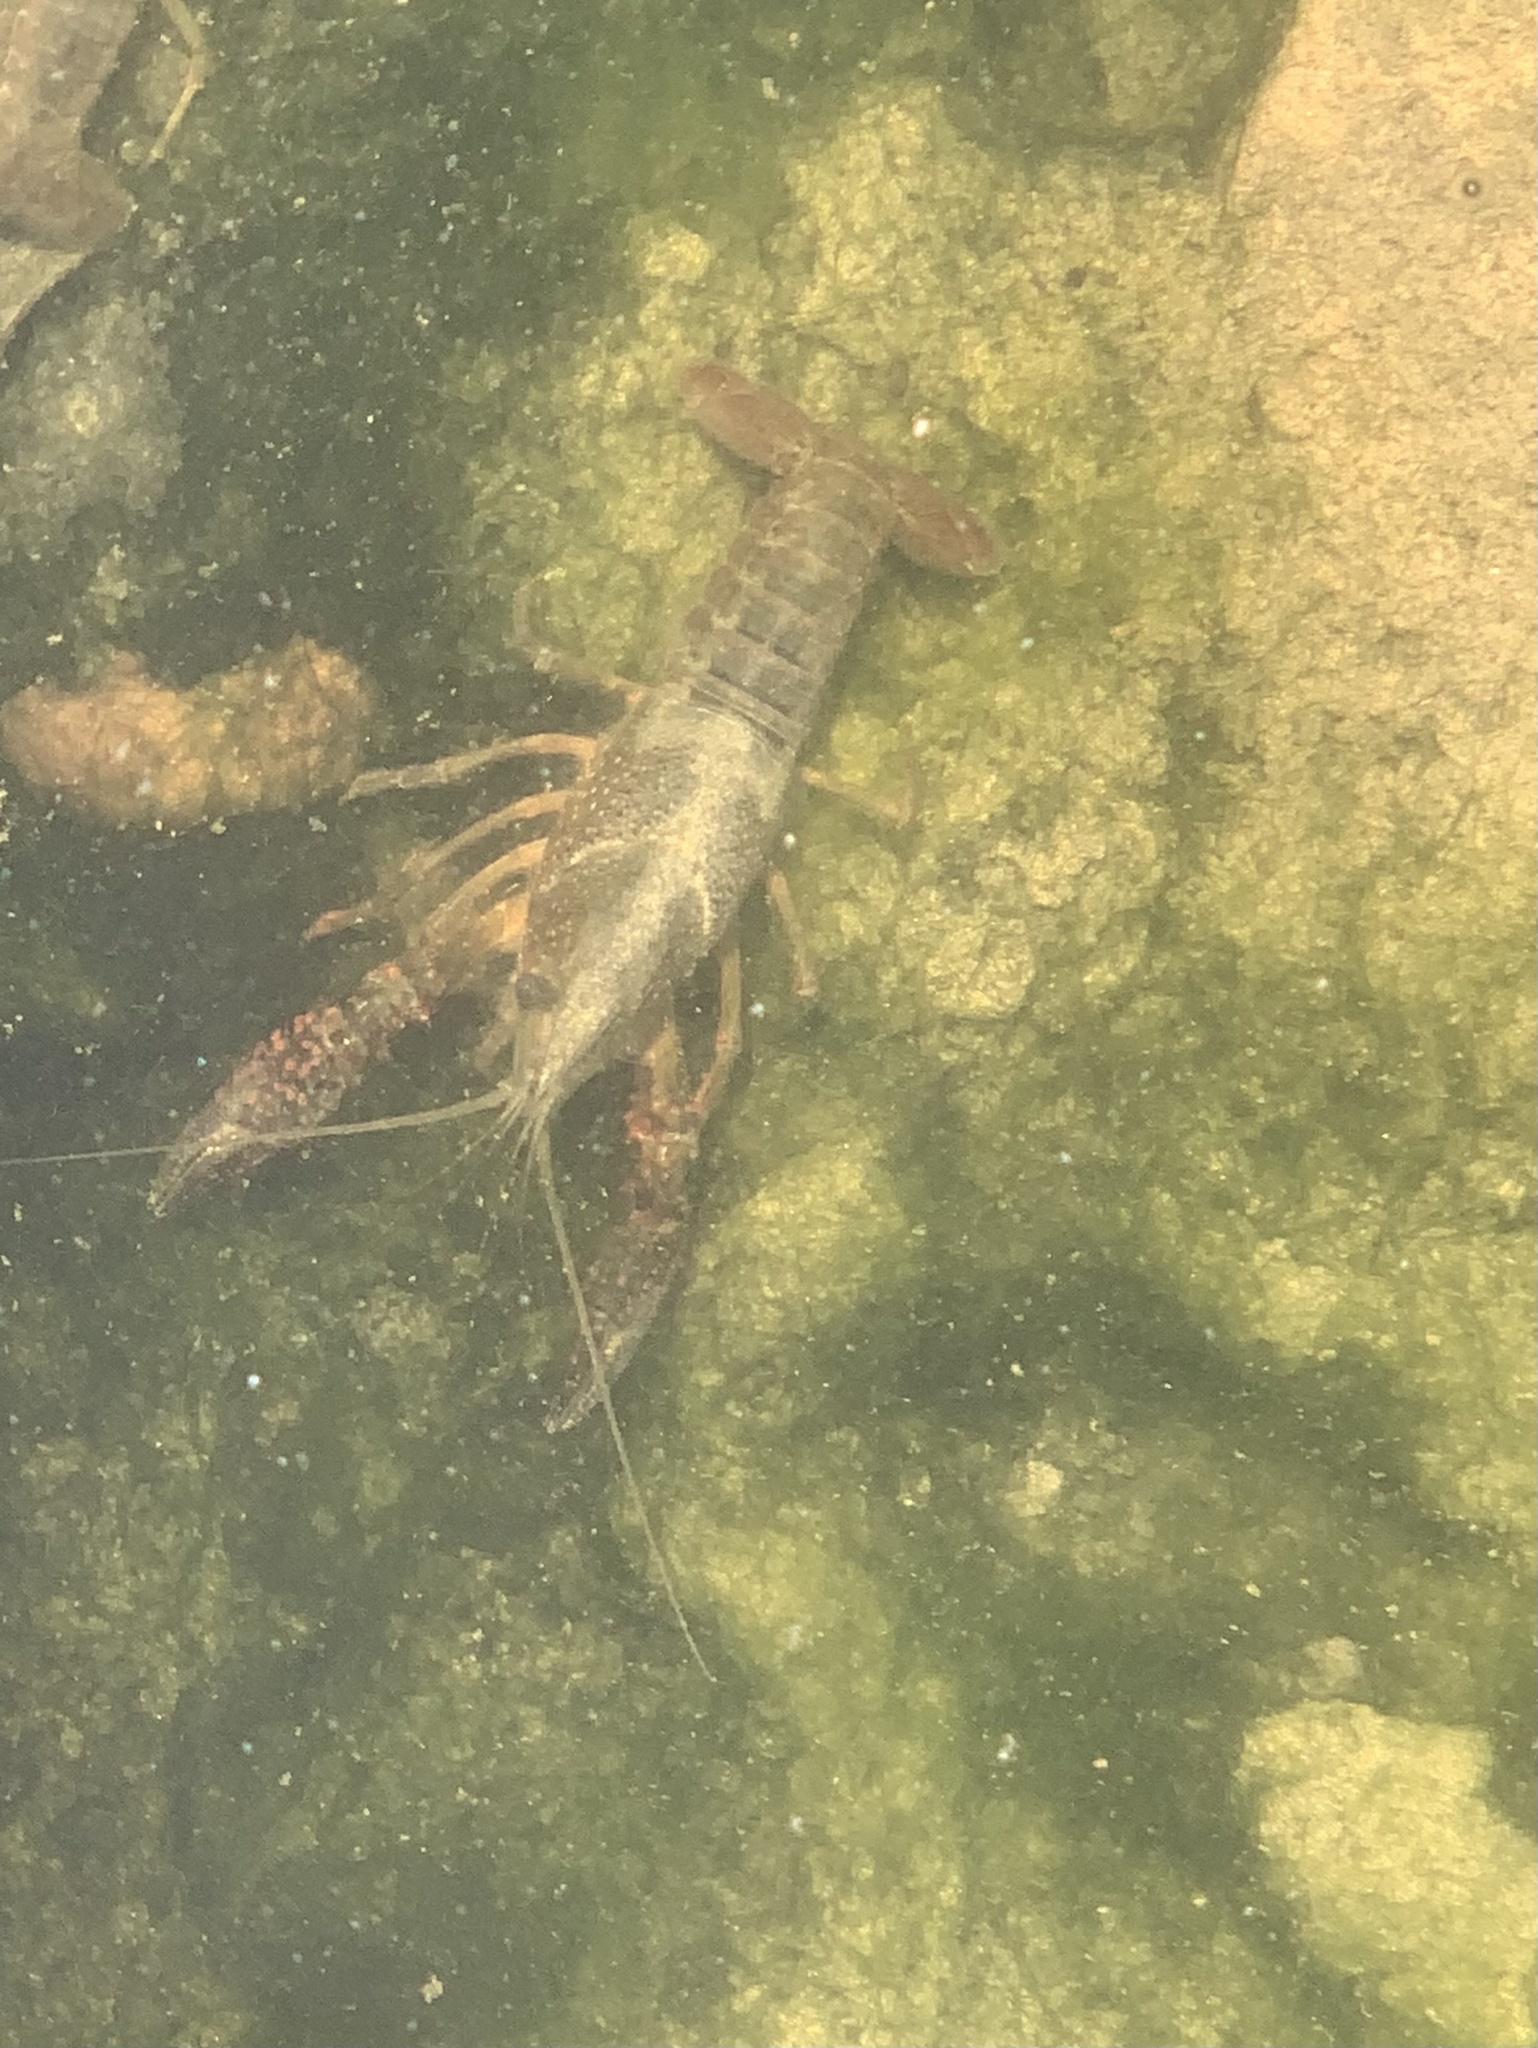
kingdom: Animalia
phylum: Arthropoda
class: Malacostraca
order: Decapoda
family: Cambaridae
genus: Procambarus
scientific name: Procambarus clarkii
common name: Red swamp crayfish
